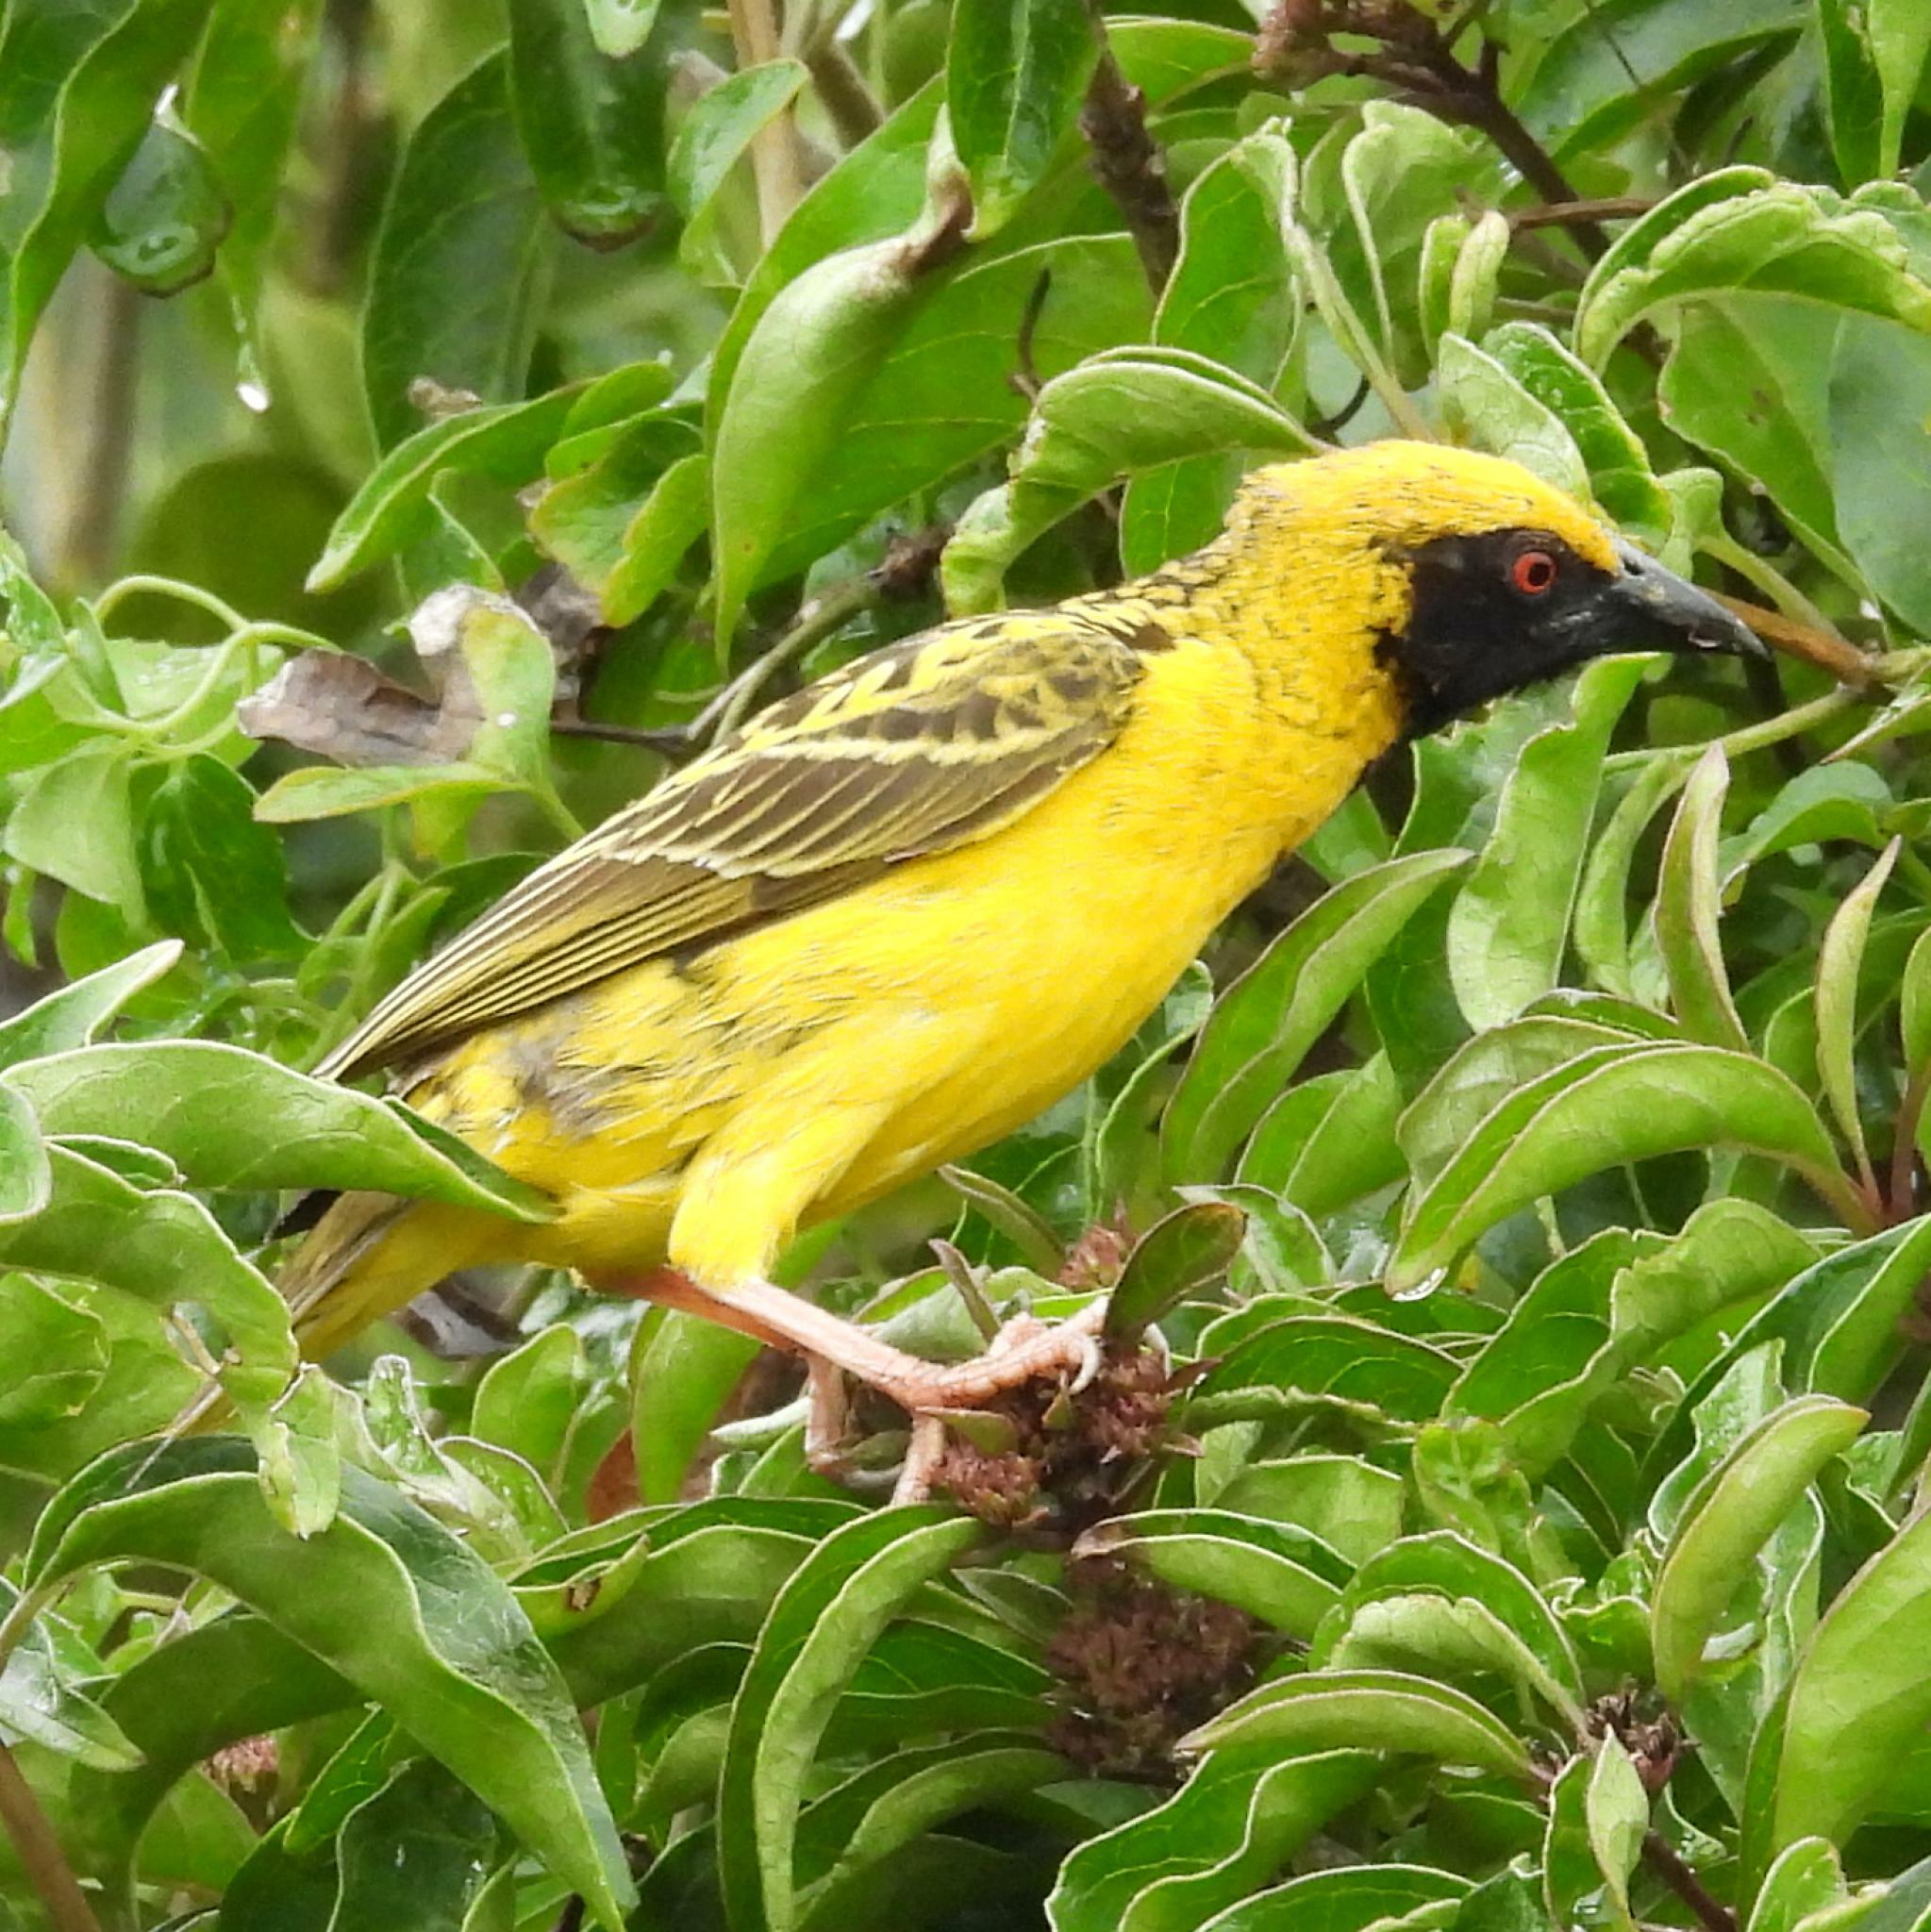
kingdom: Animalia
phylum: Chordata
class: Aves
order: Passeriformes
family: Ploceidae
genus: Ploceus
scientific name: Ploceus cucullatus
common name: Village weaver
